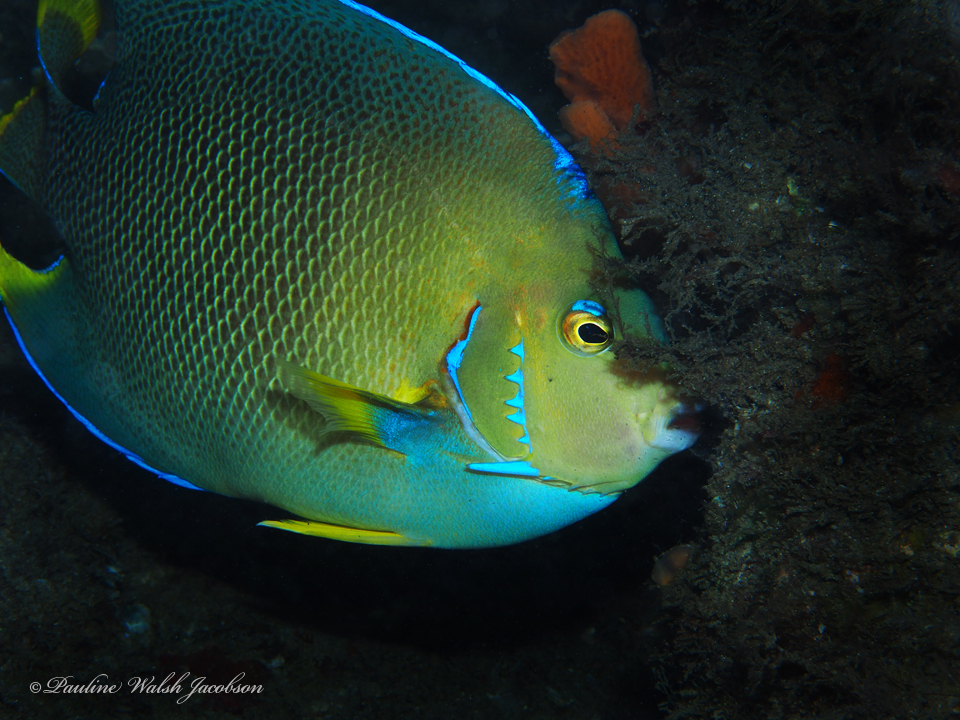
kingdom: Animalia
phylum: Chordata
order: Perciformes
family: Pomacanthidae
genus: Holacanthus
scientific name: Holacanthus bermudensis
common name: Blue angelfish
